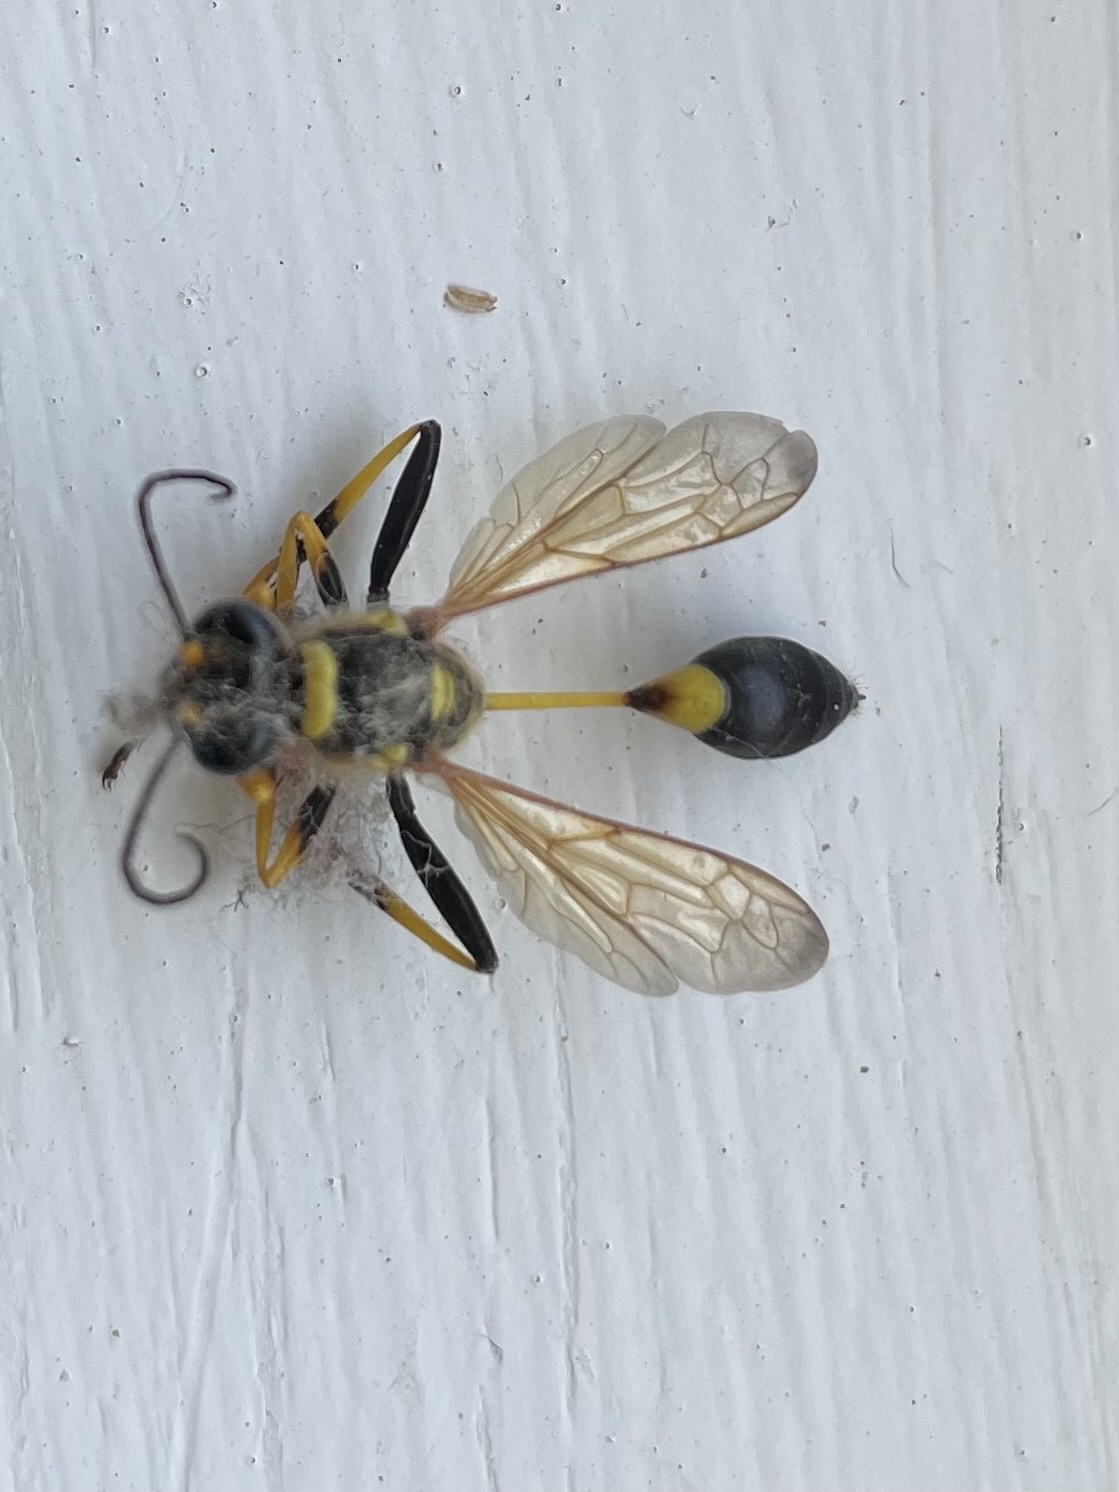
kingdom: Animalia
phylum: Arthropoda
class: Insecta
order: Hymenoptera
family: Sphecidae
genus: Sceliphron
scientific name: Sceliphron caementarium
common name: Mud dauber
